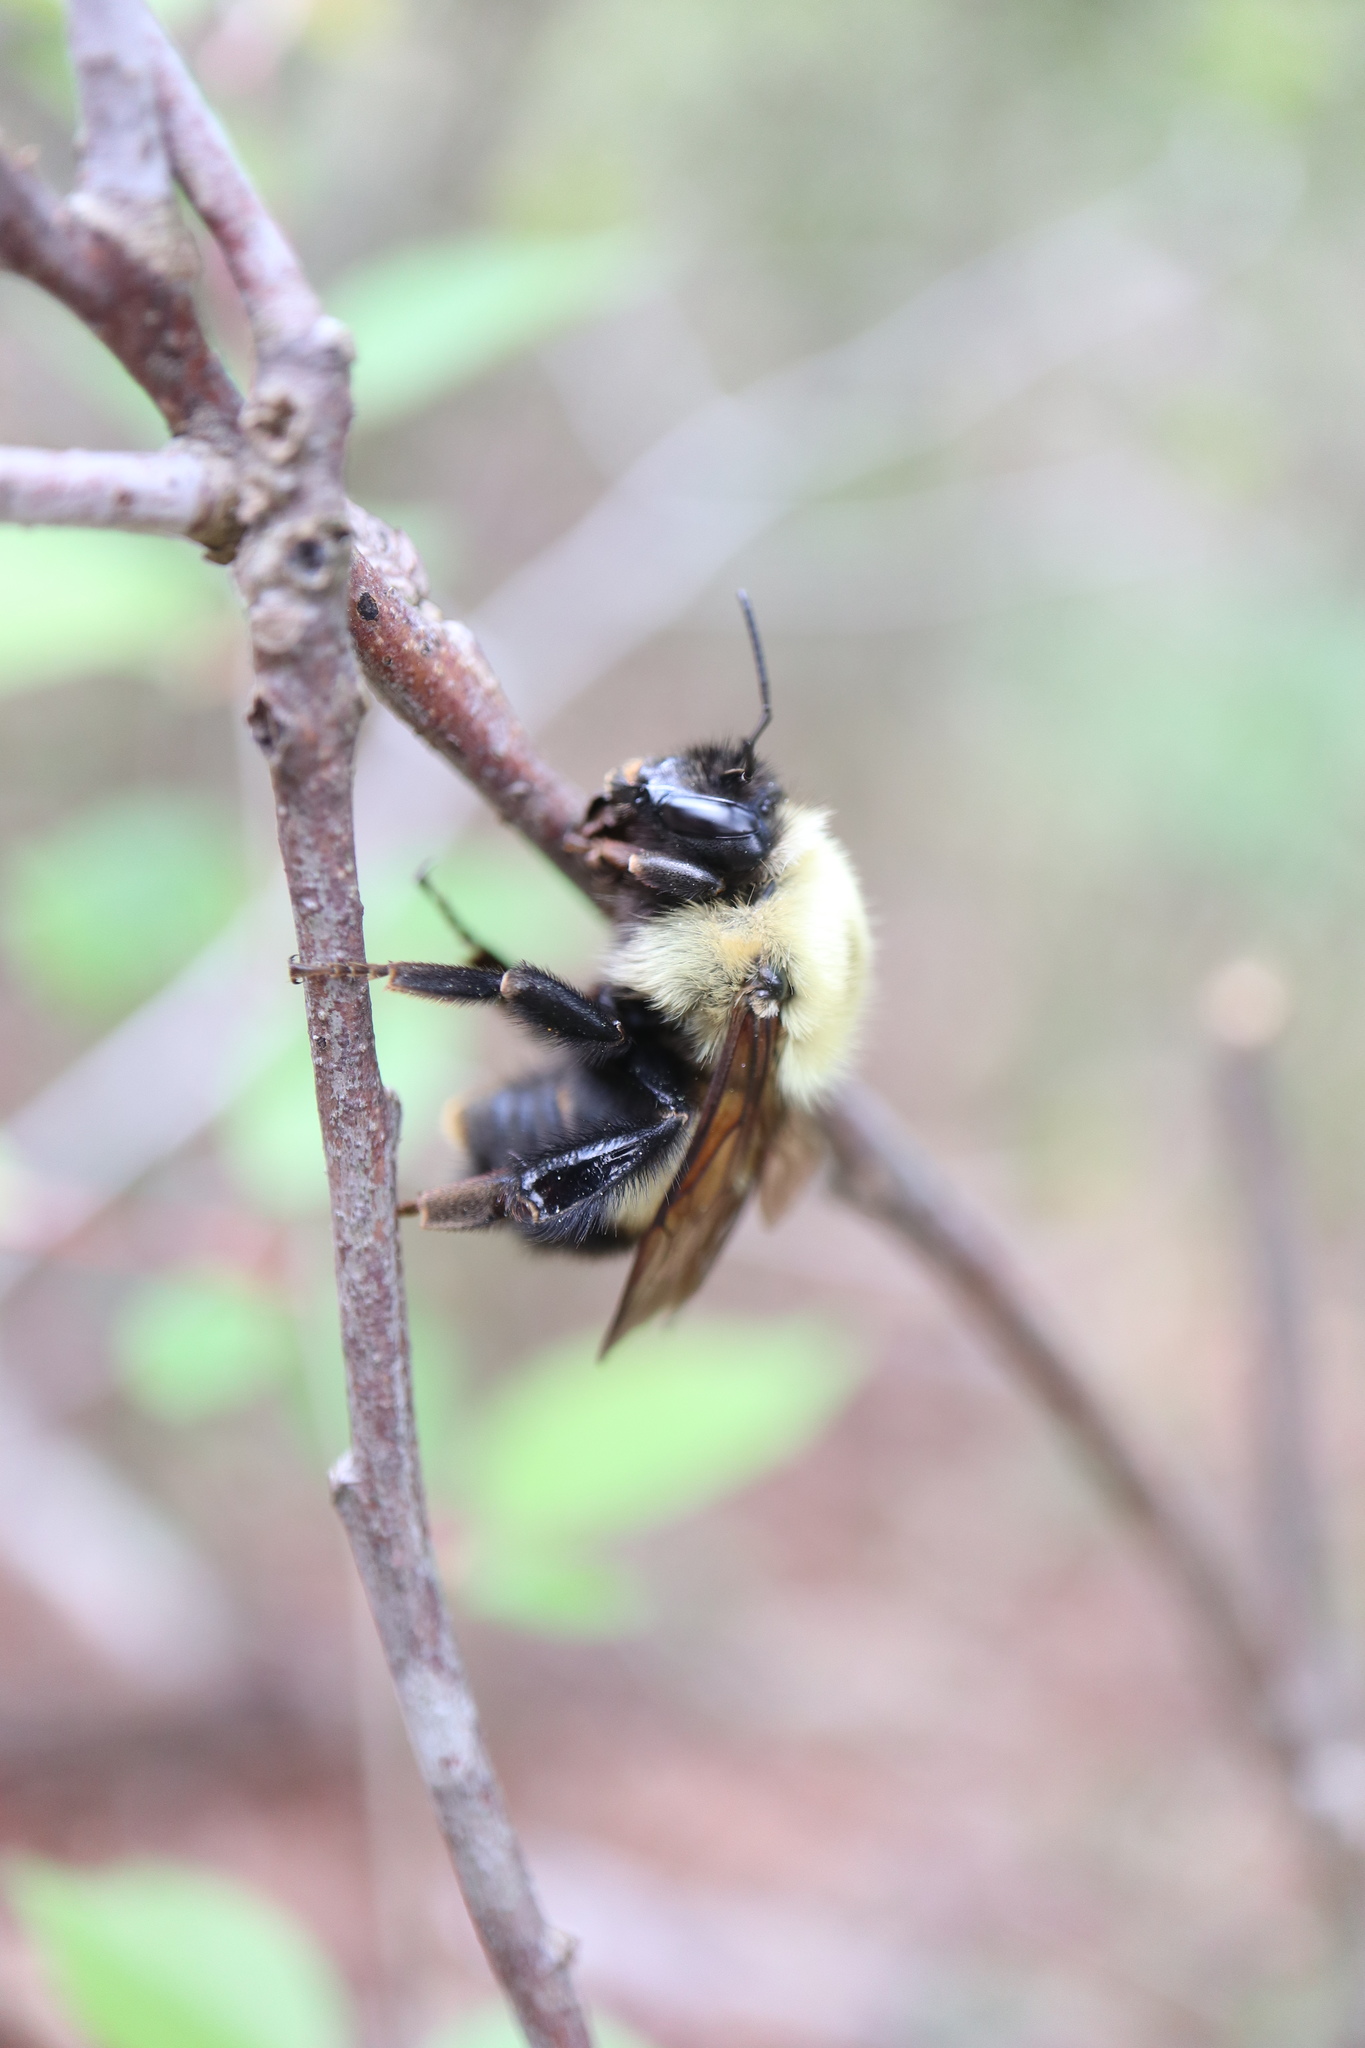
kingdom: Animalia
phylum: Arthropoda
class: Insecta
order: Hymenoptera
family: Apidae
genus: Bombus
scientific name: Bombus griseocollis
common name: Brown-belted bumble bee
